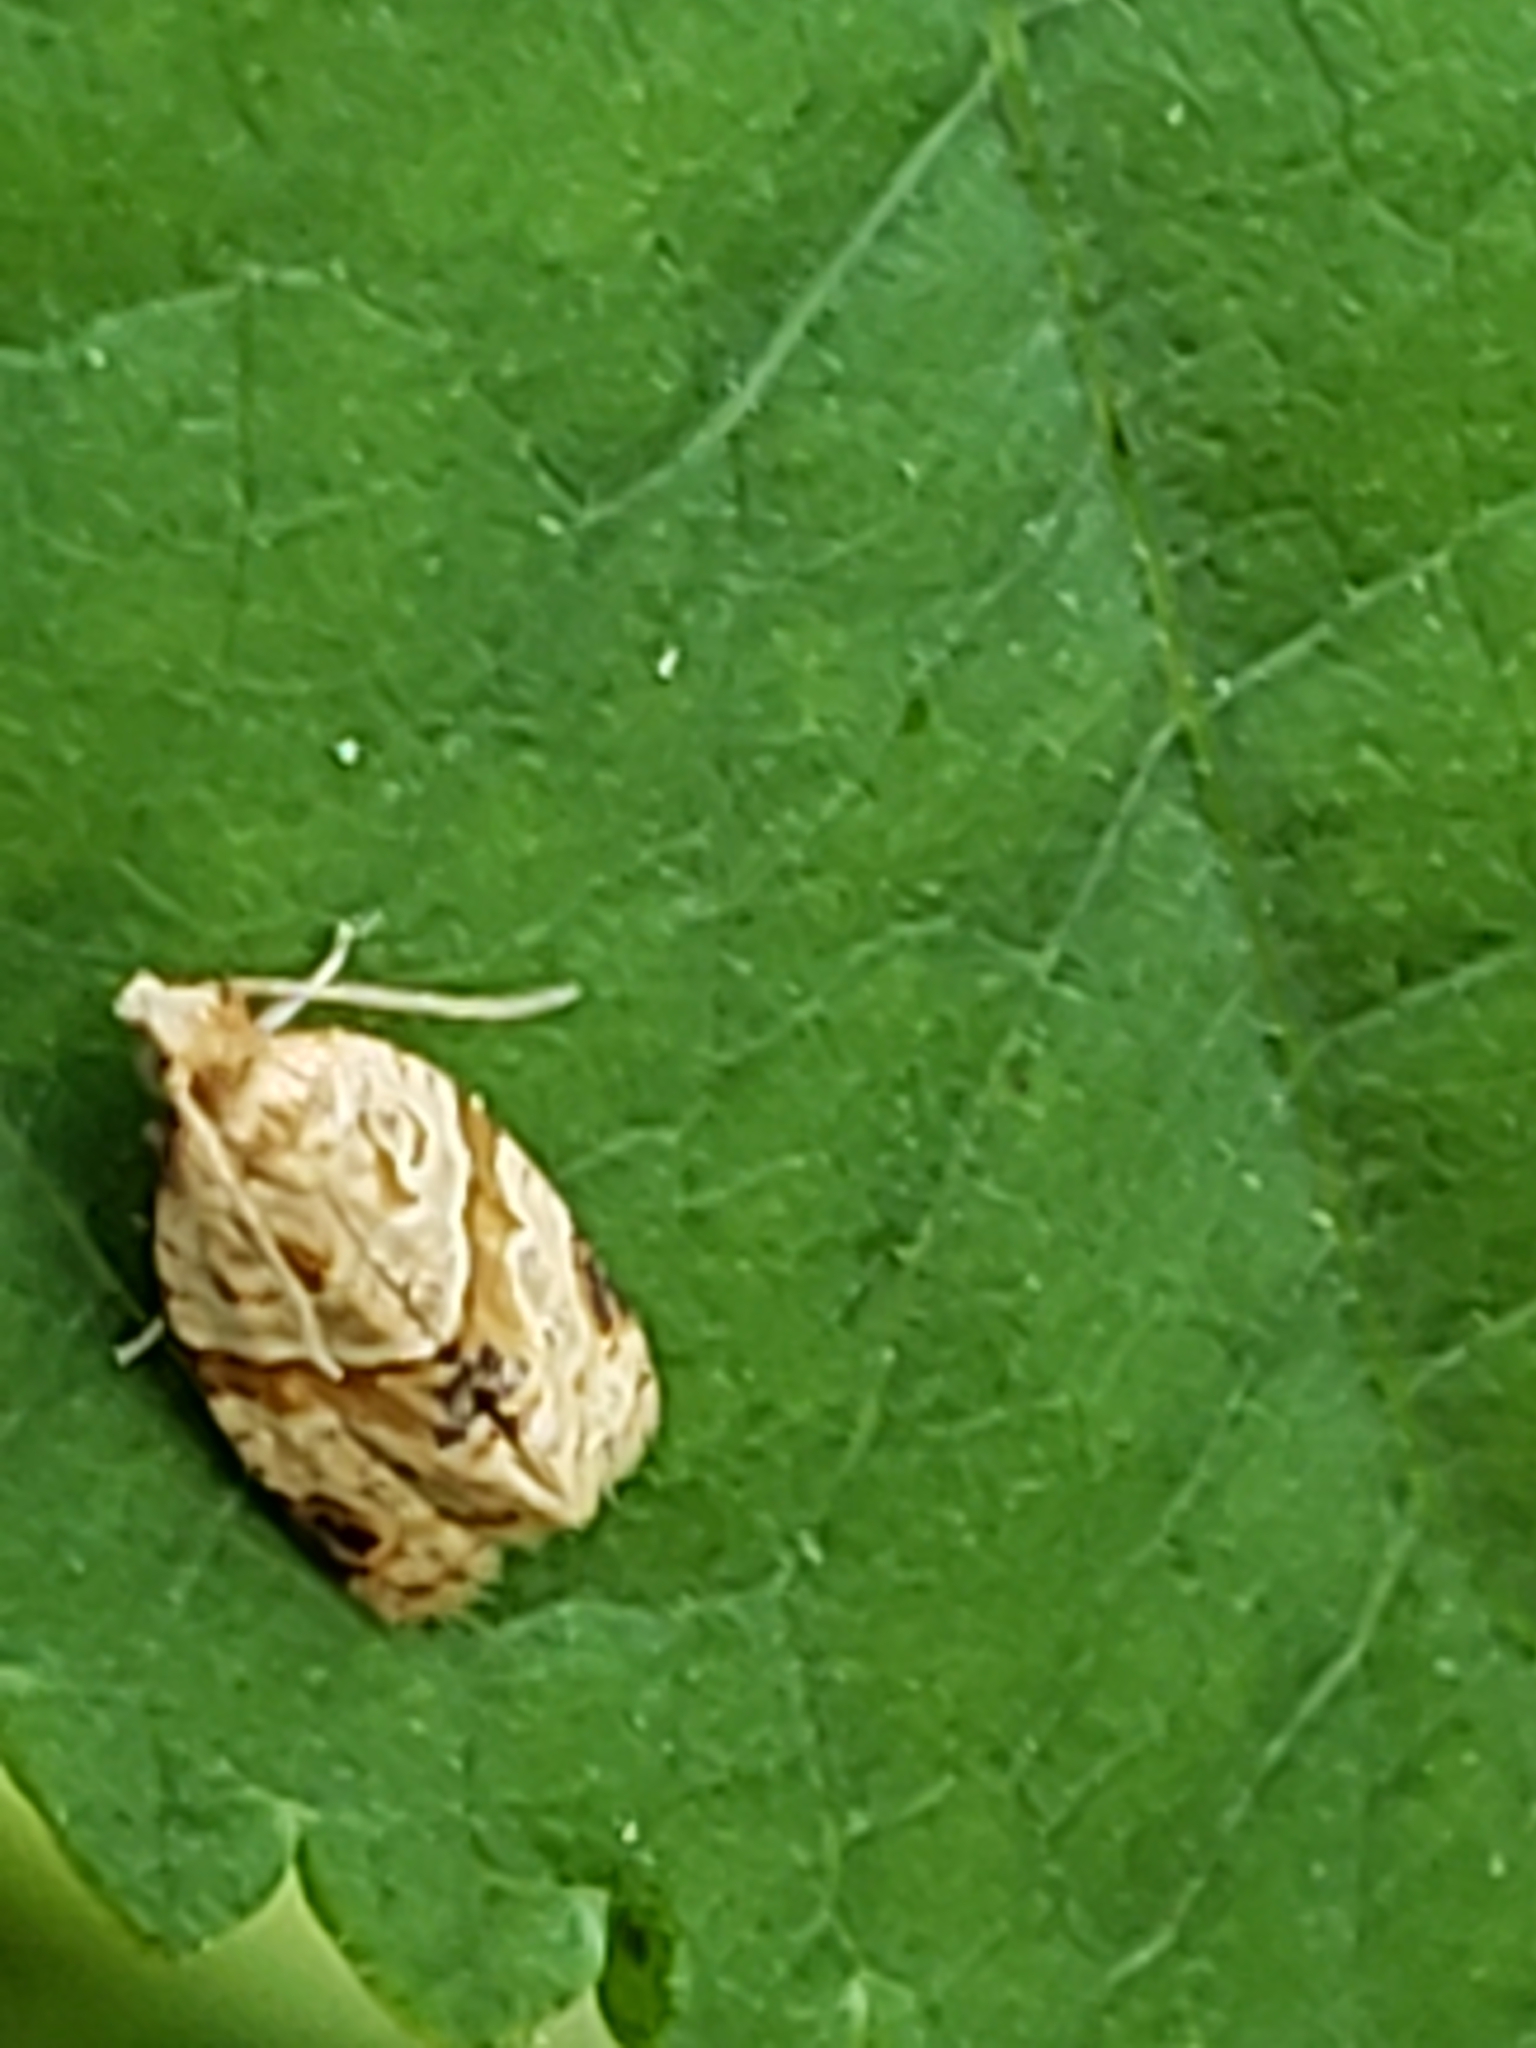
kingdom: Animalia
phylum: Arthropoda
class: Insecta
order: Lepidoptera
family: Tortricidae
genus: Clepsis
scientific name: Clepsis
